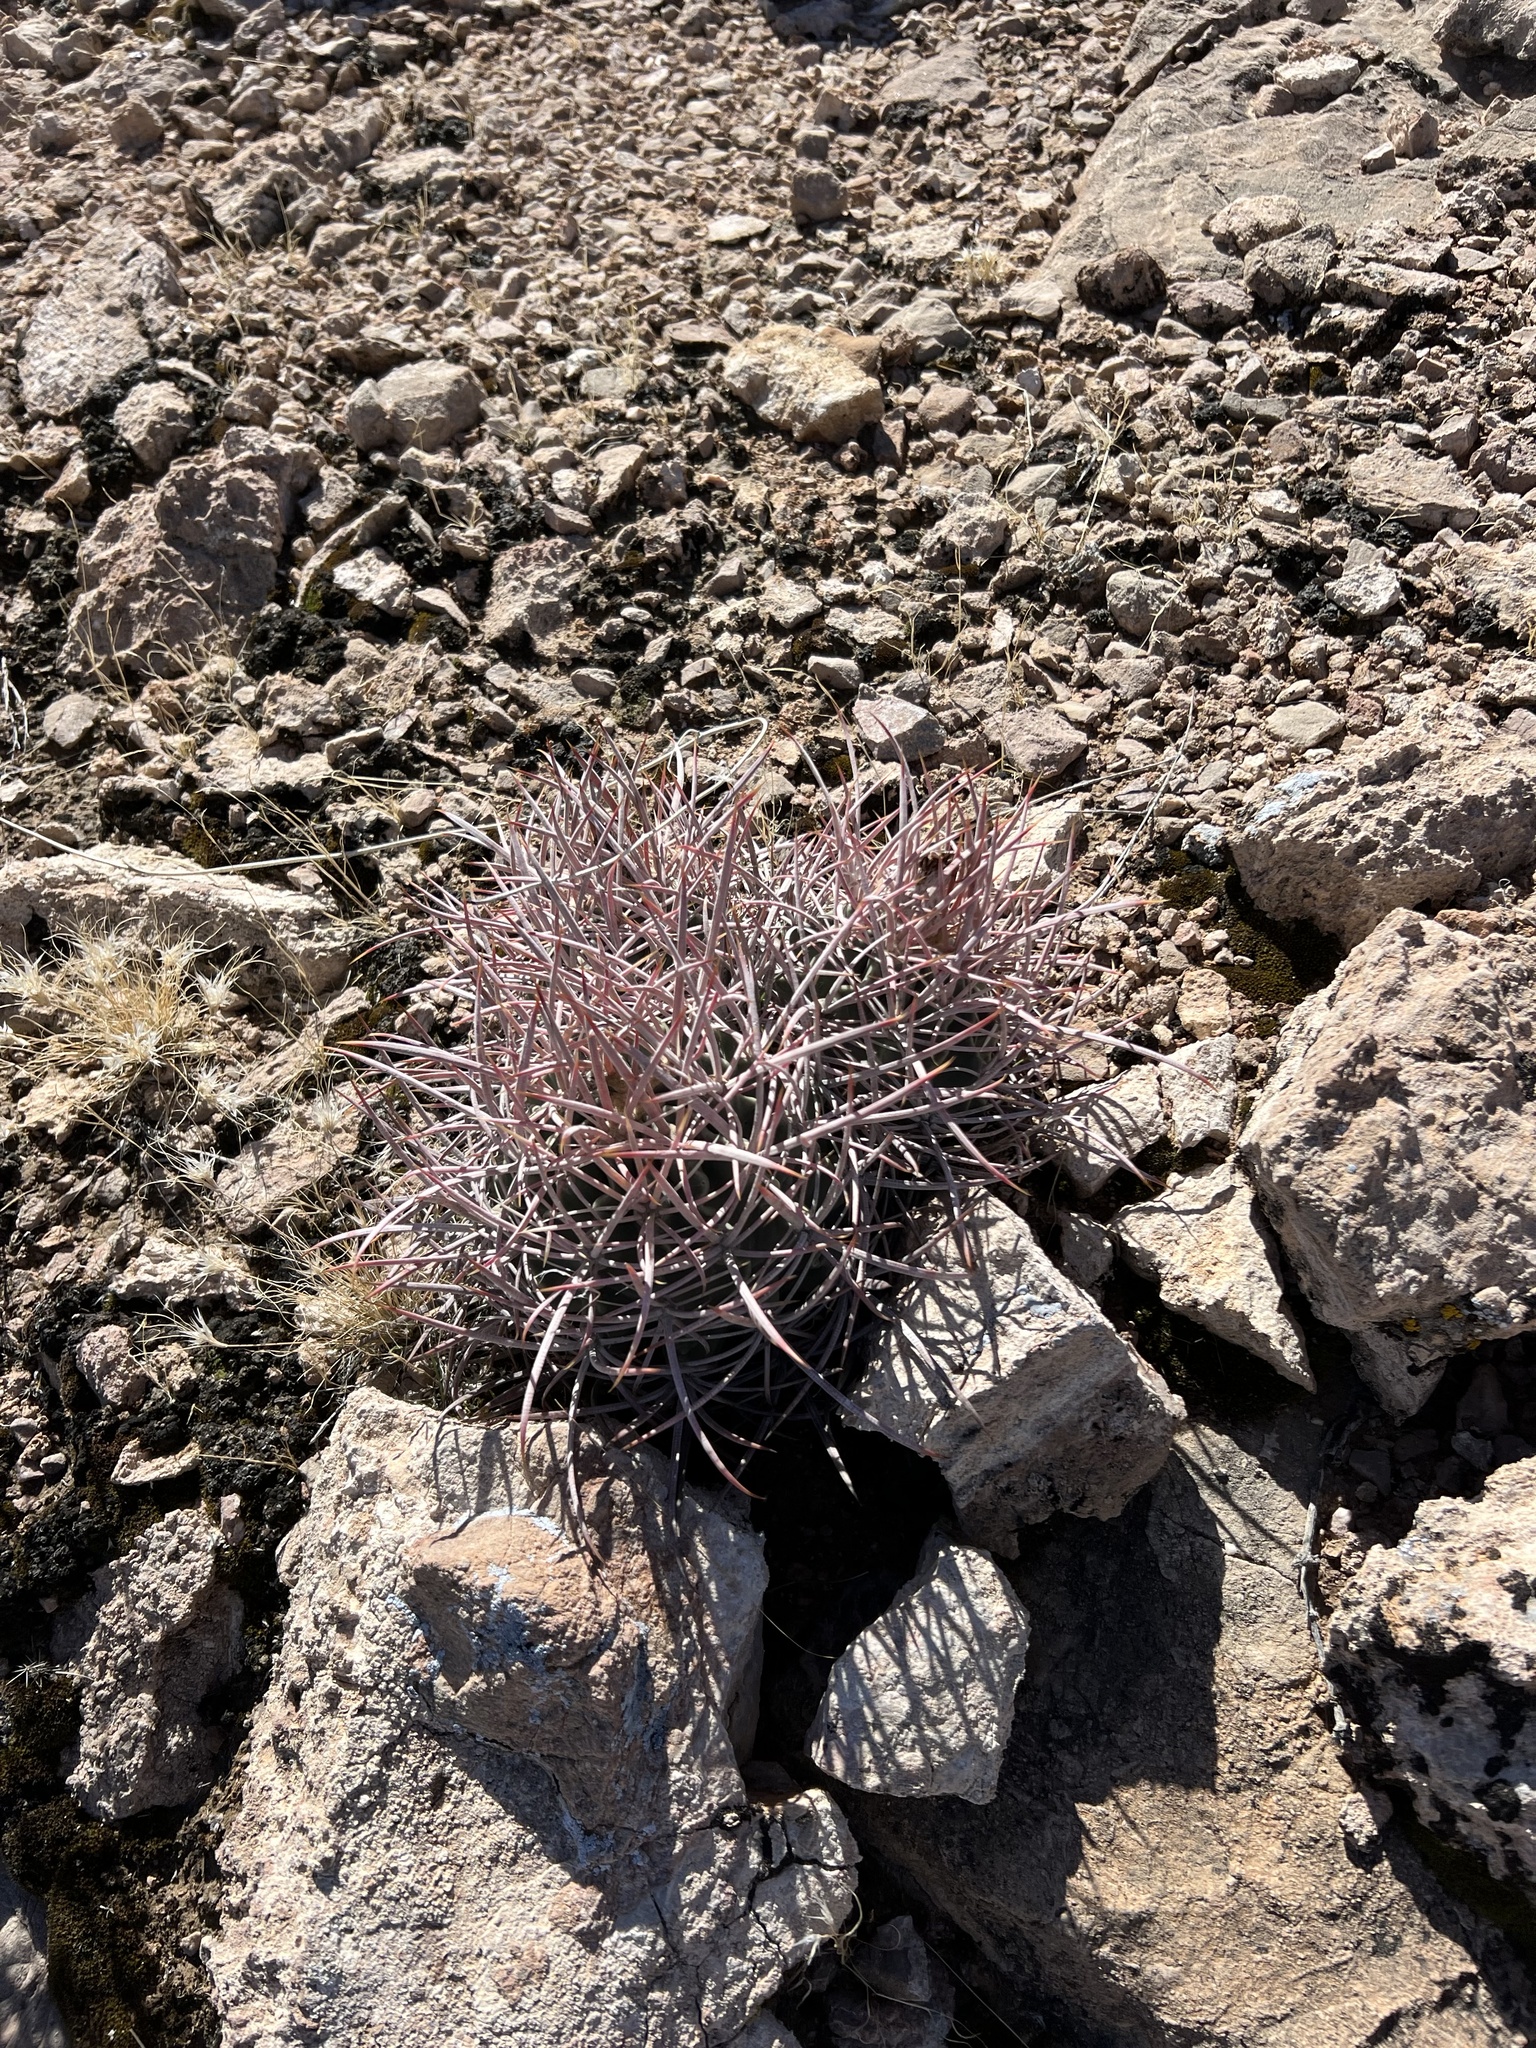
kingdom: Plantae
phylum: Tracheophyta
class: Magnoliopsida
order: Caryophyllales
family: Cactaceae
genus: Echinocactus
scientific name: Echinocactus polycephalus
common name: Cottontop cactus
